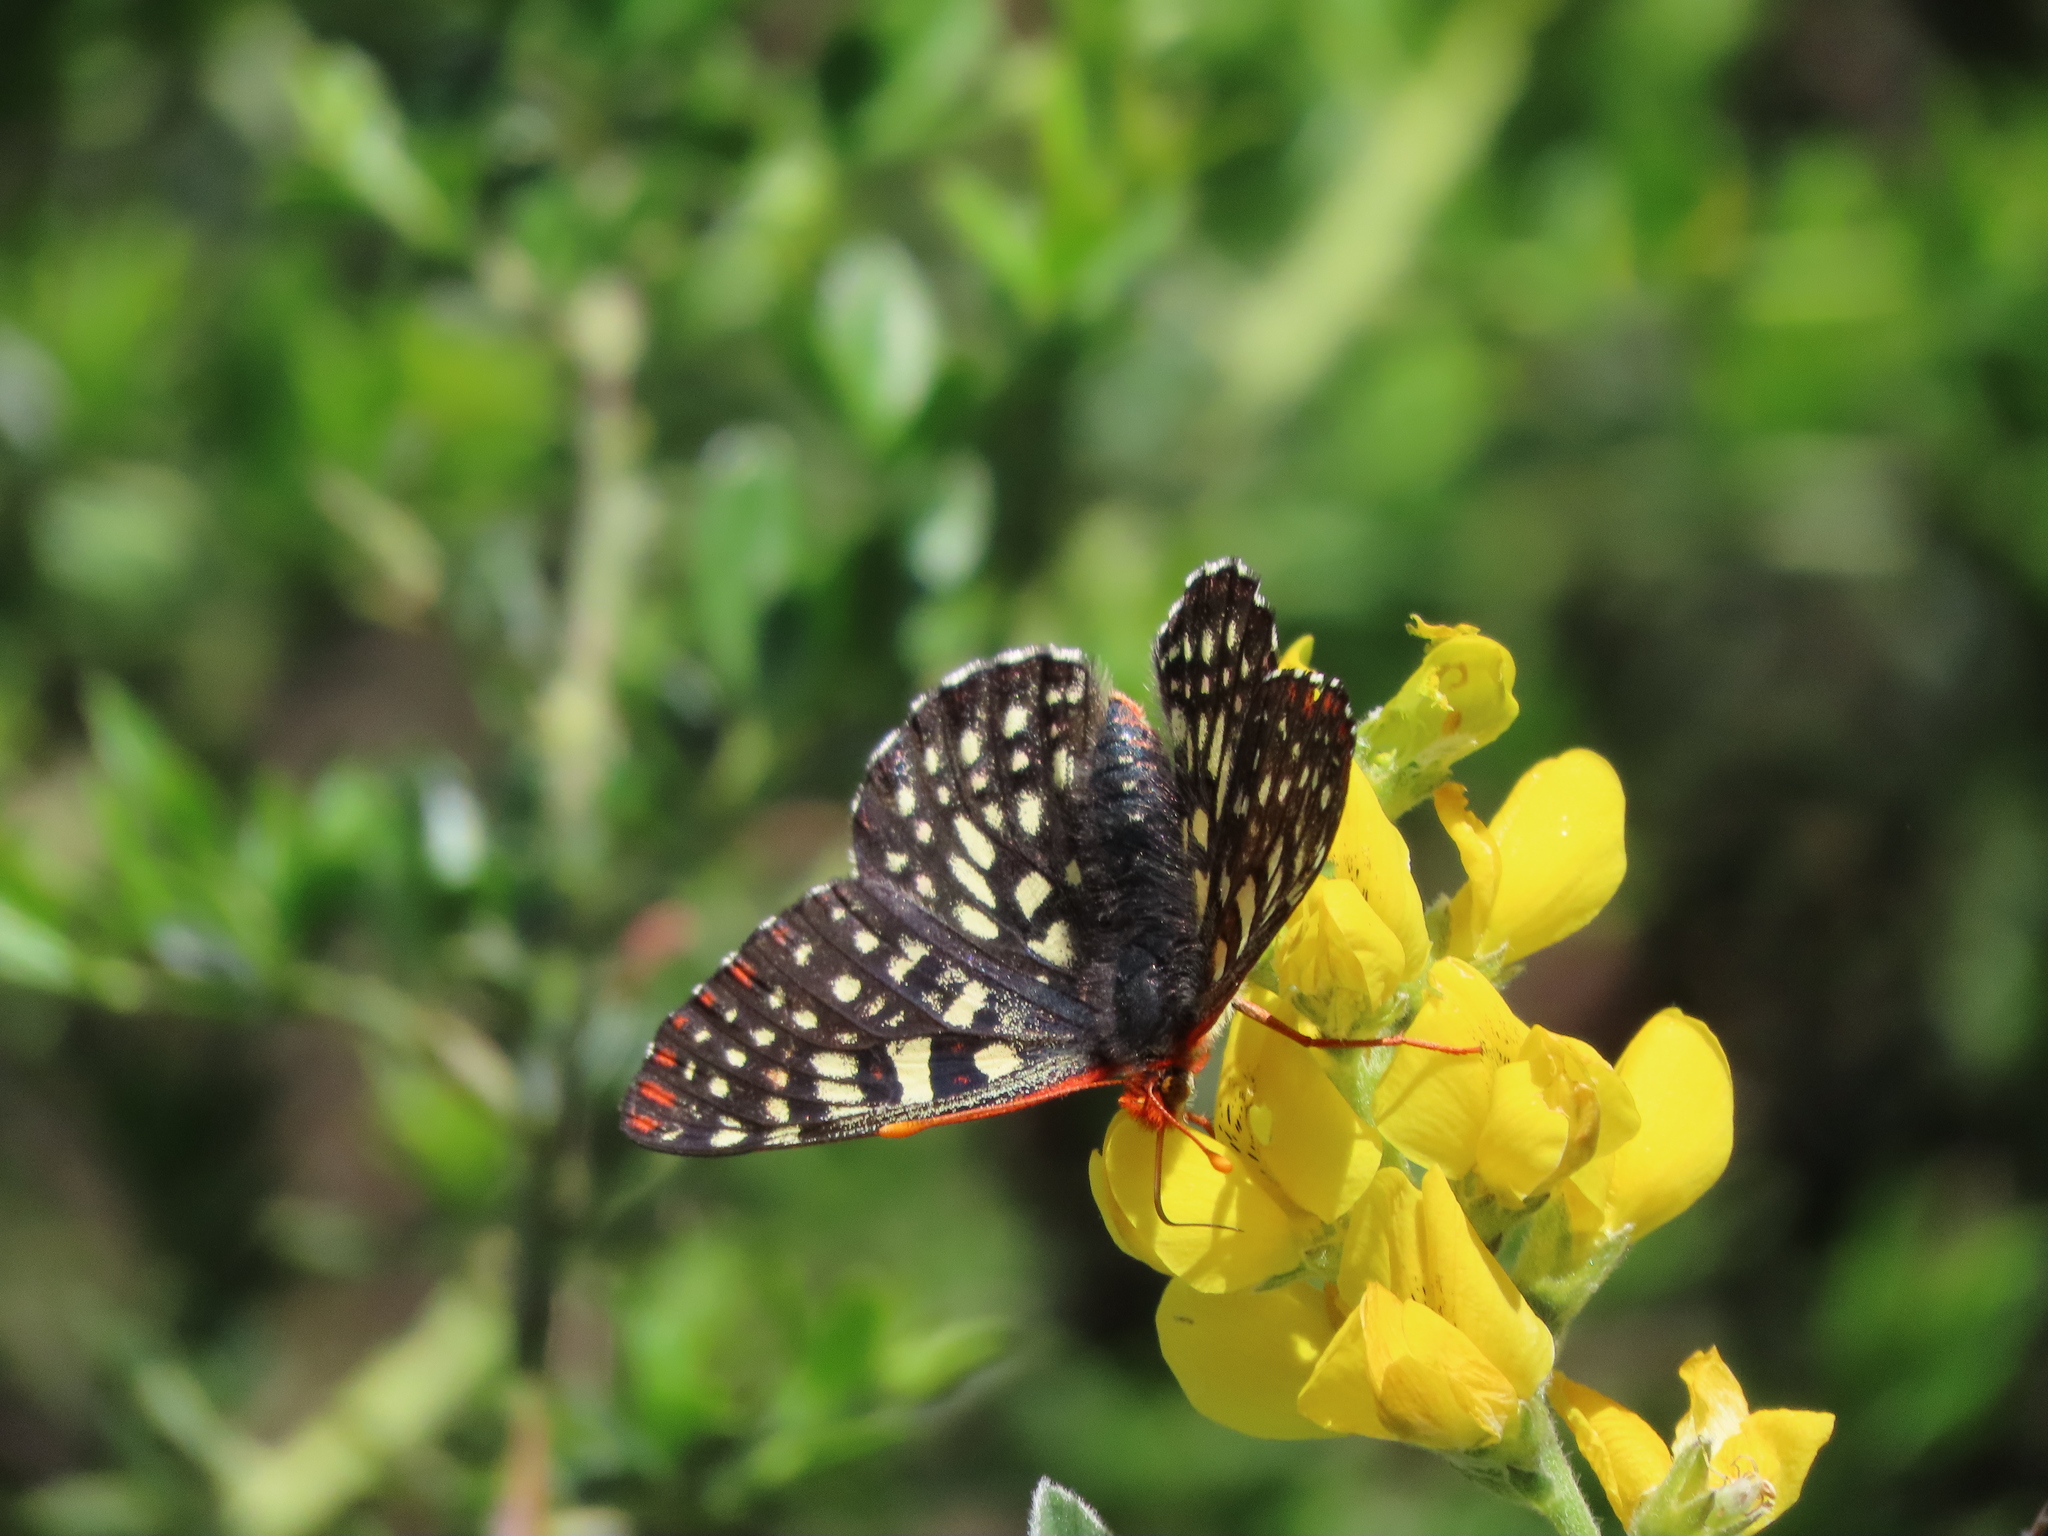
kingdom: Animalia
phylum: Arthropoda
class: Insecta
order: Lepidoptera
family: Nymphalidae
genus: Occidryas
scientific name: Occidryas chalcedona
